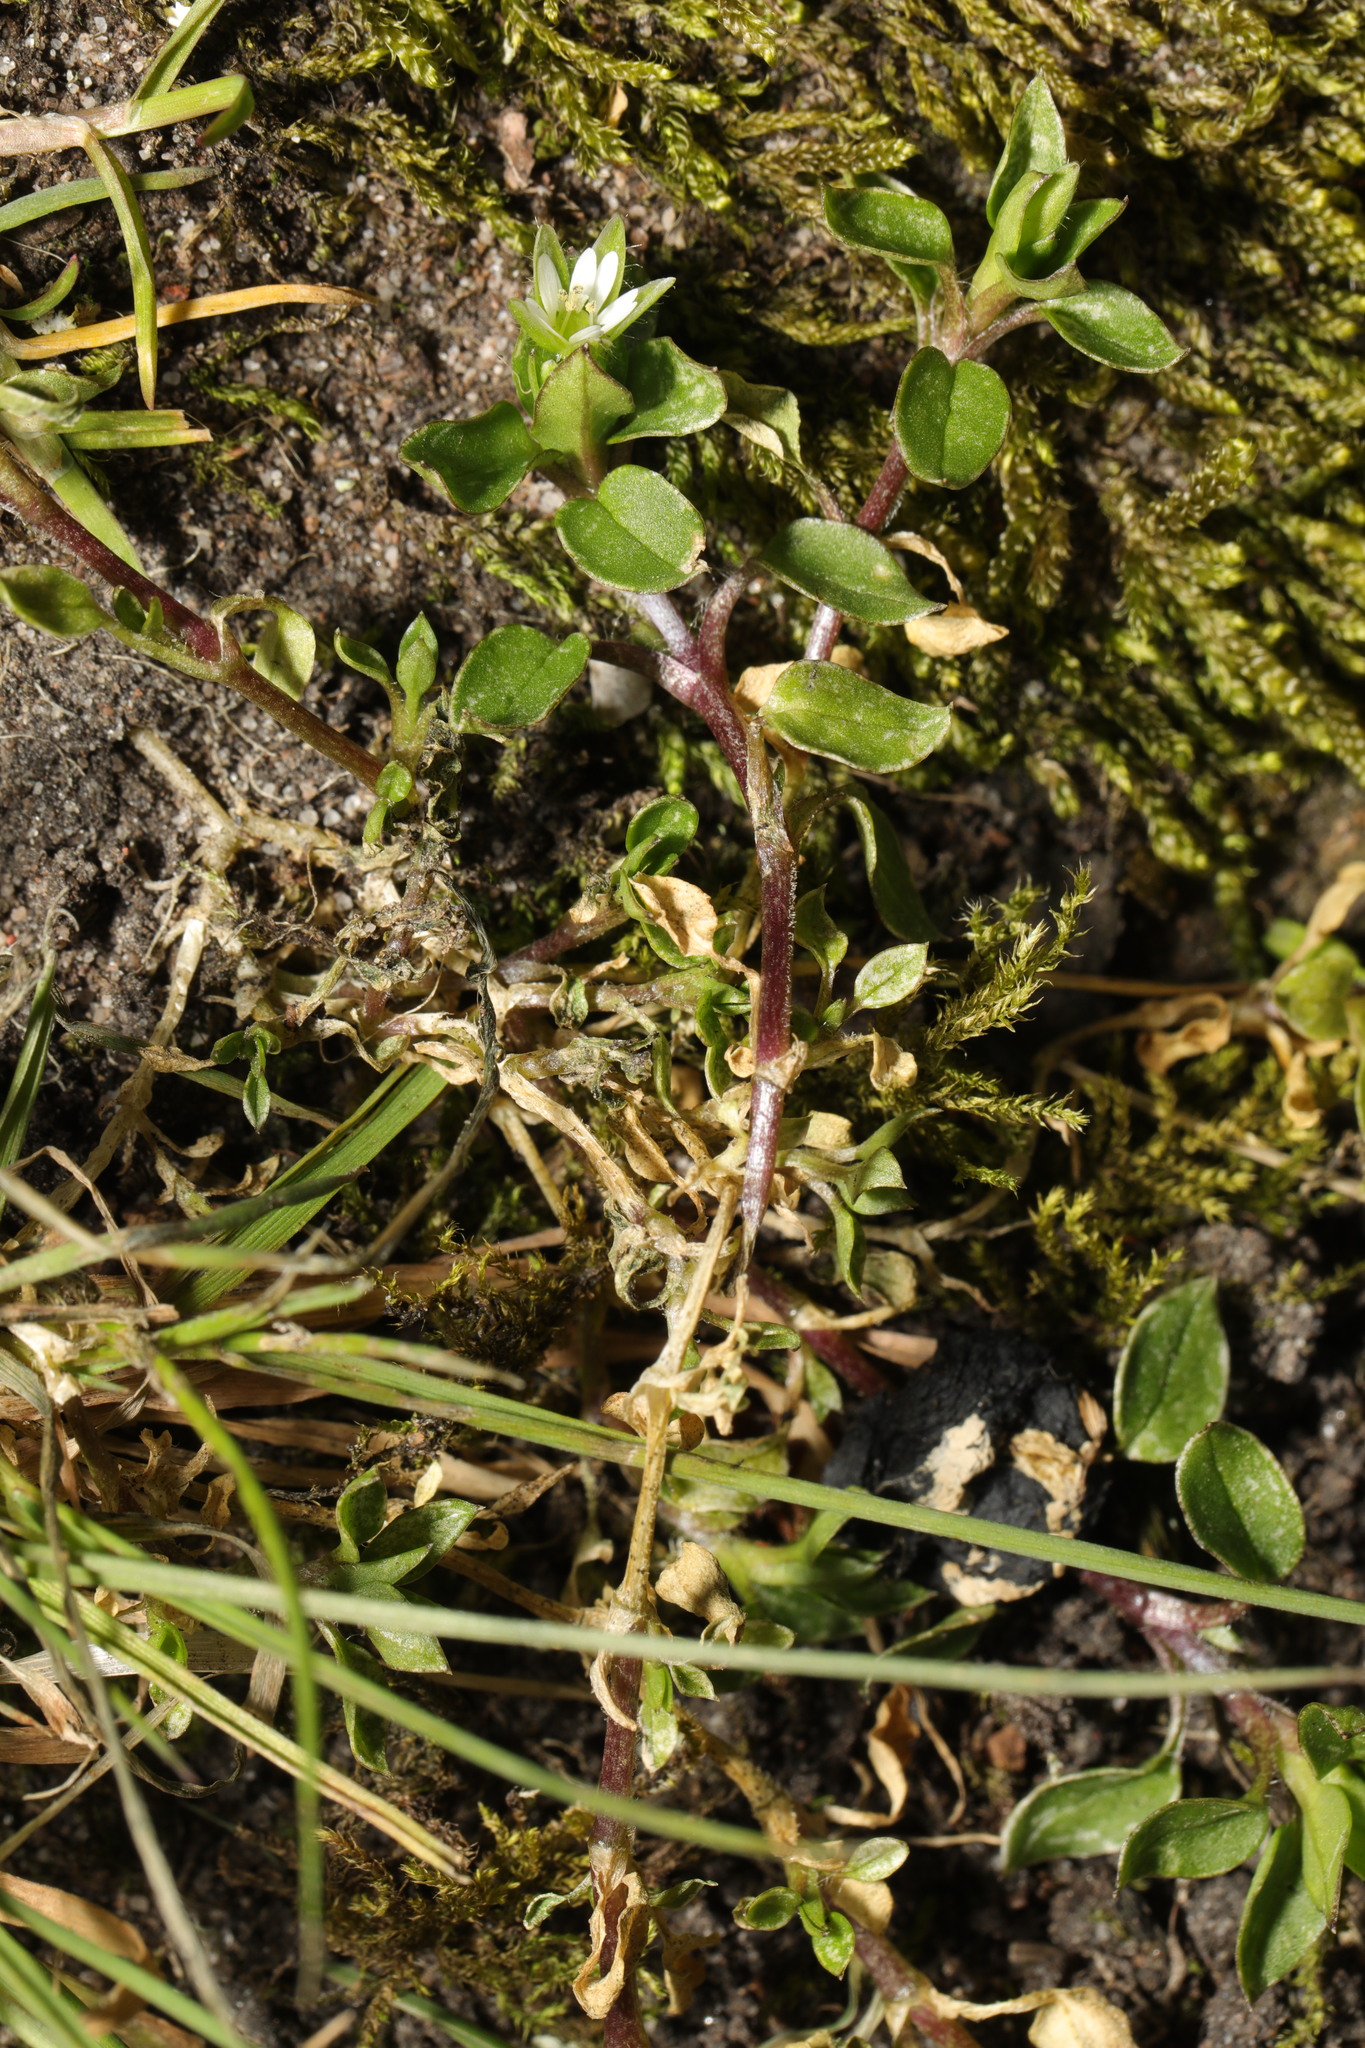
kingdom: Plantae
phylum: Tracheophyta
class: Magnoliopsida
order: Caryophyllales
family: Caryophyllaceae
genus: Stellaria
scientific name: Stellaria media
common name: Common chickweed
